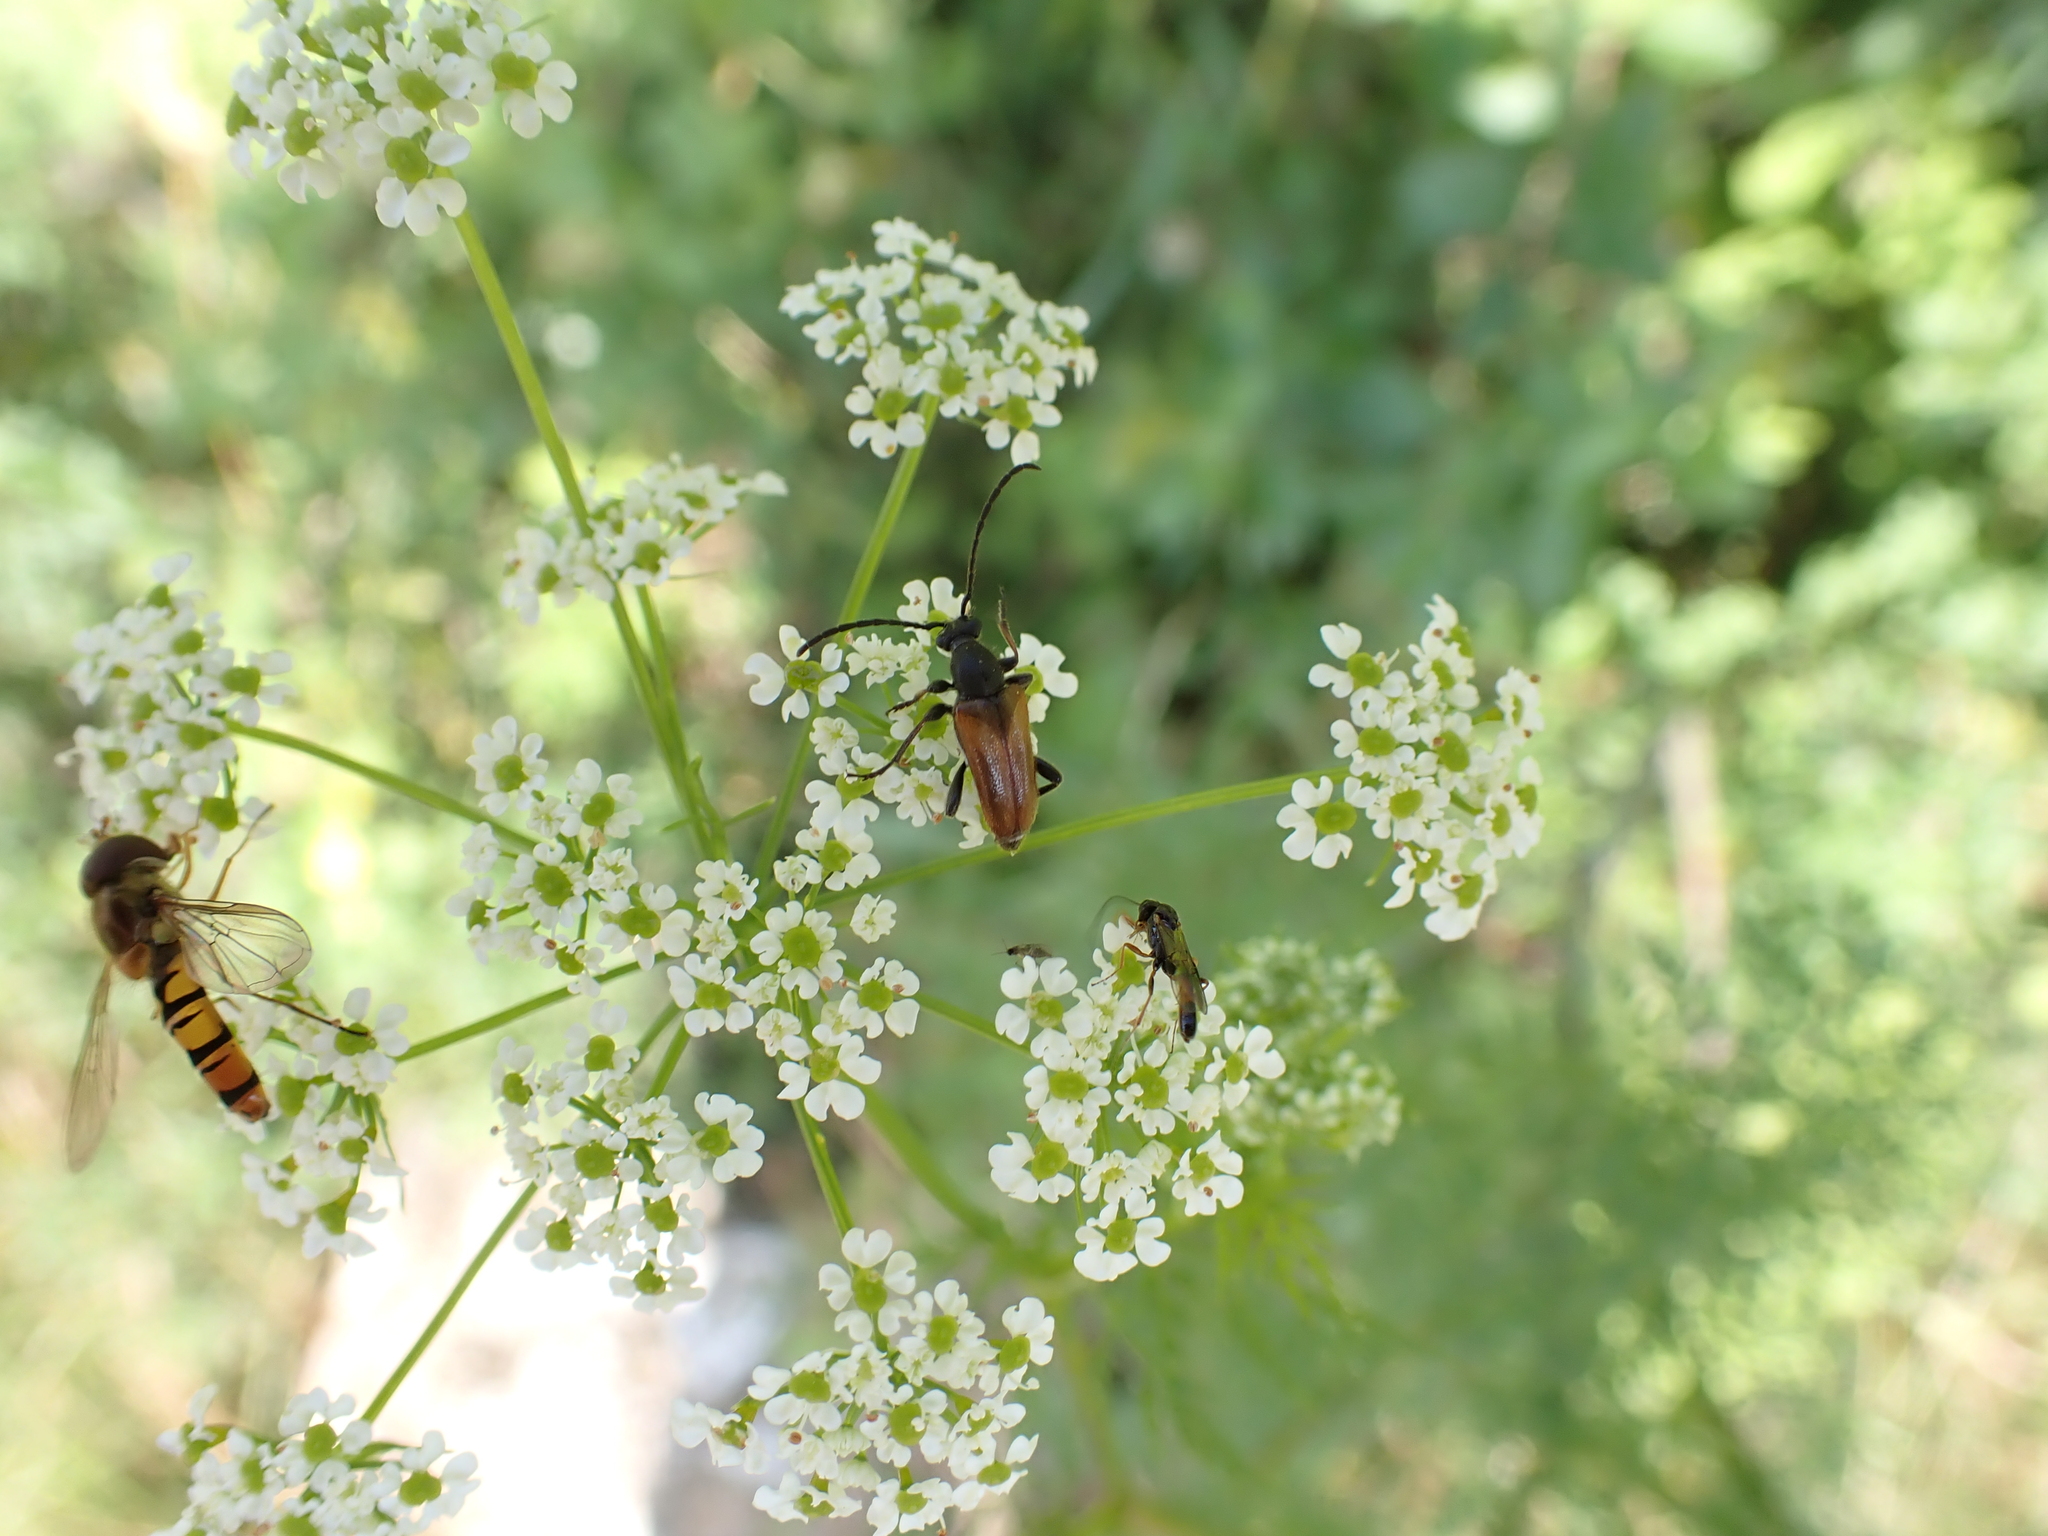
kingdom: Animalia
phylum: Arthropoda
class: Insecta
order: Coleoptera
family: Cerambycidae
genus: Pseudovadonia
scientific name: Pseudovadonia livida
